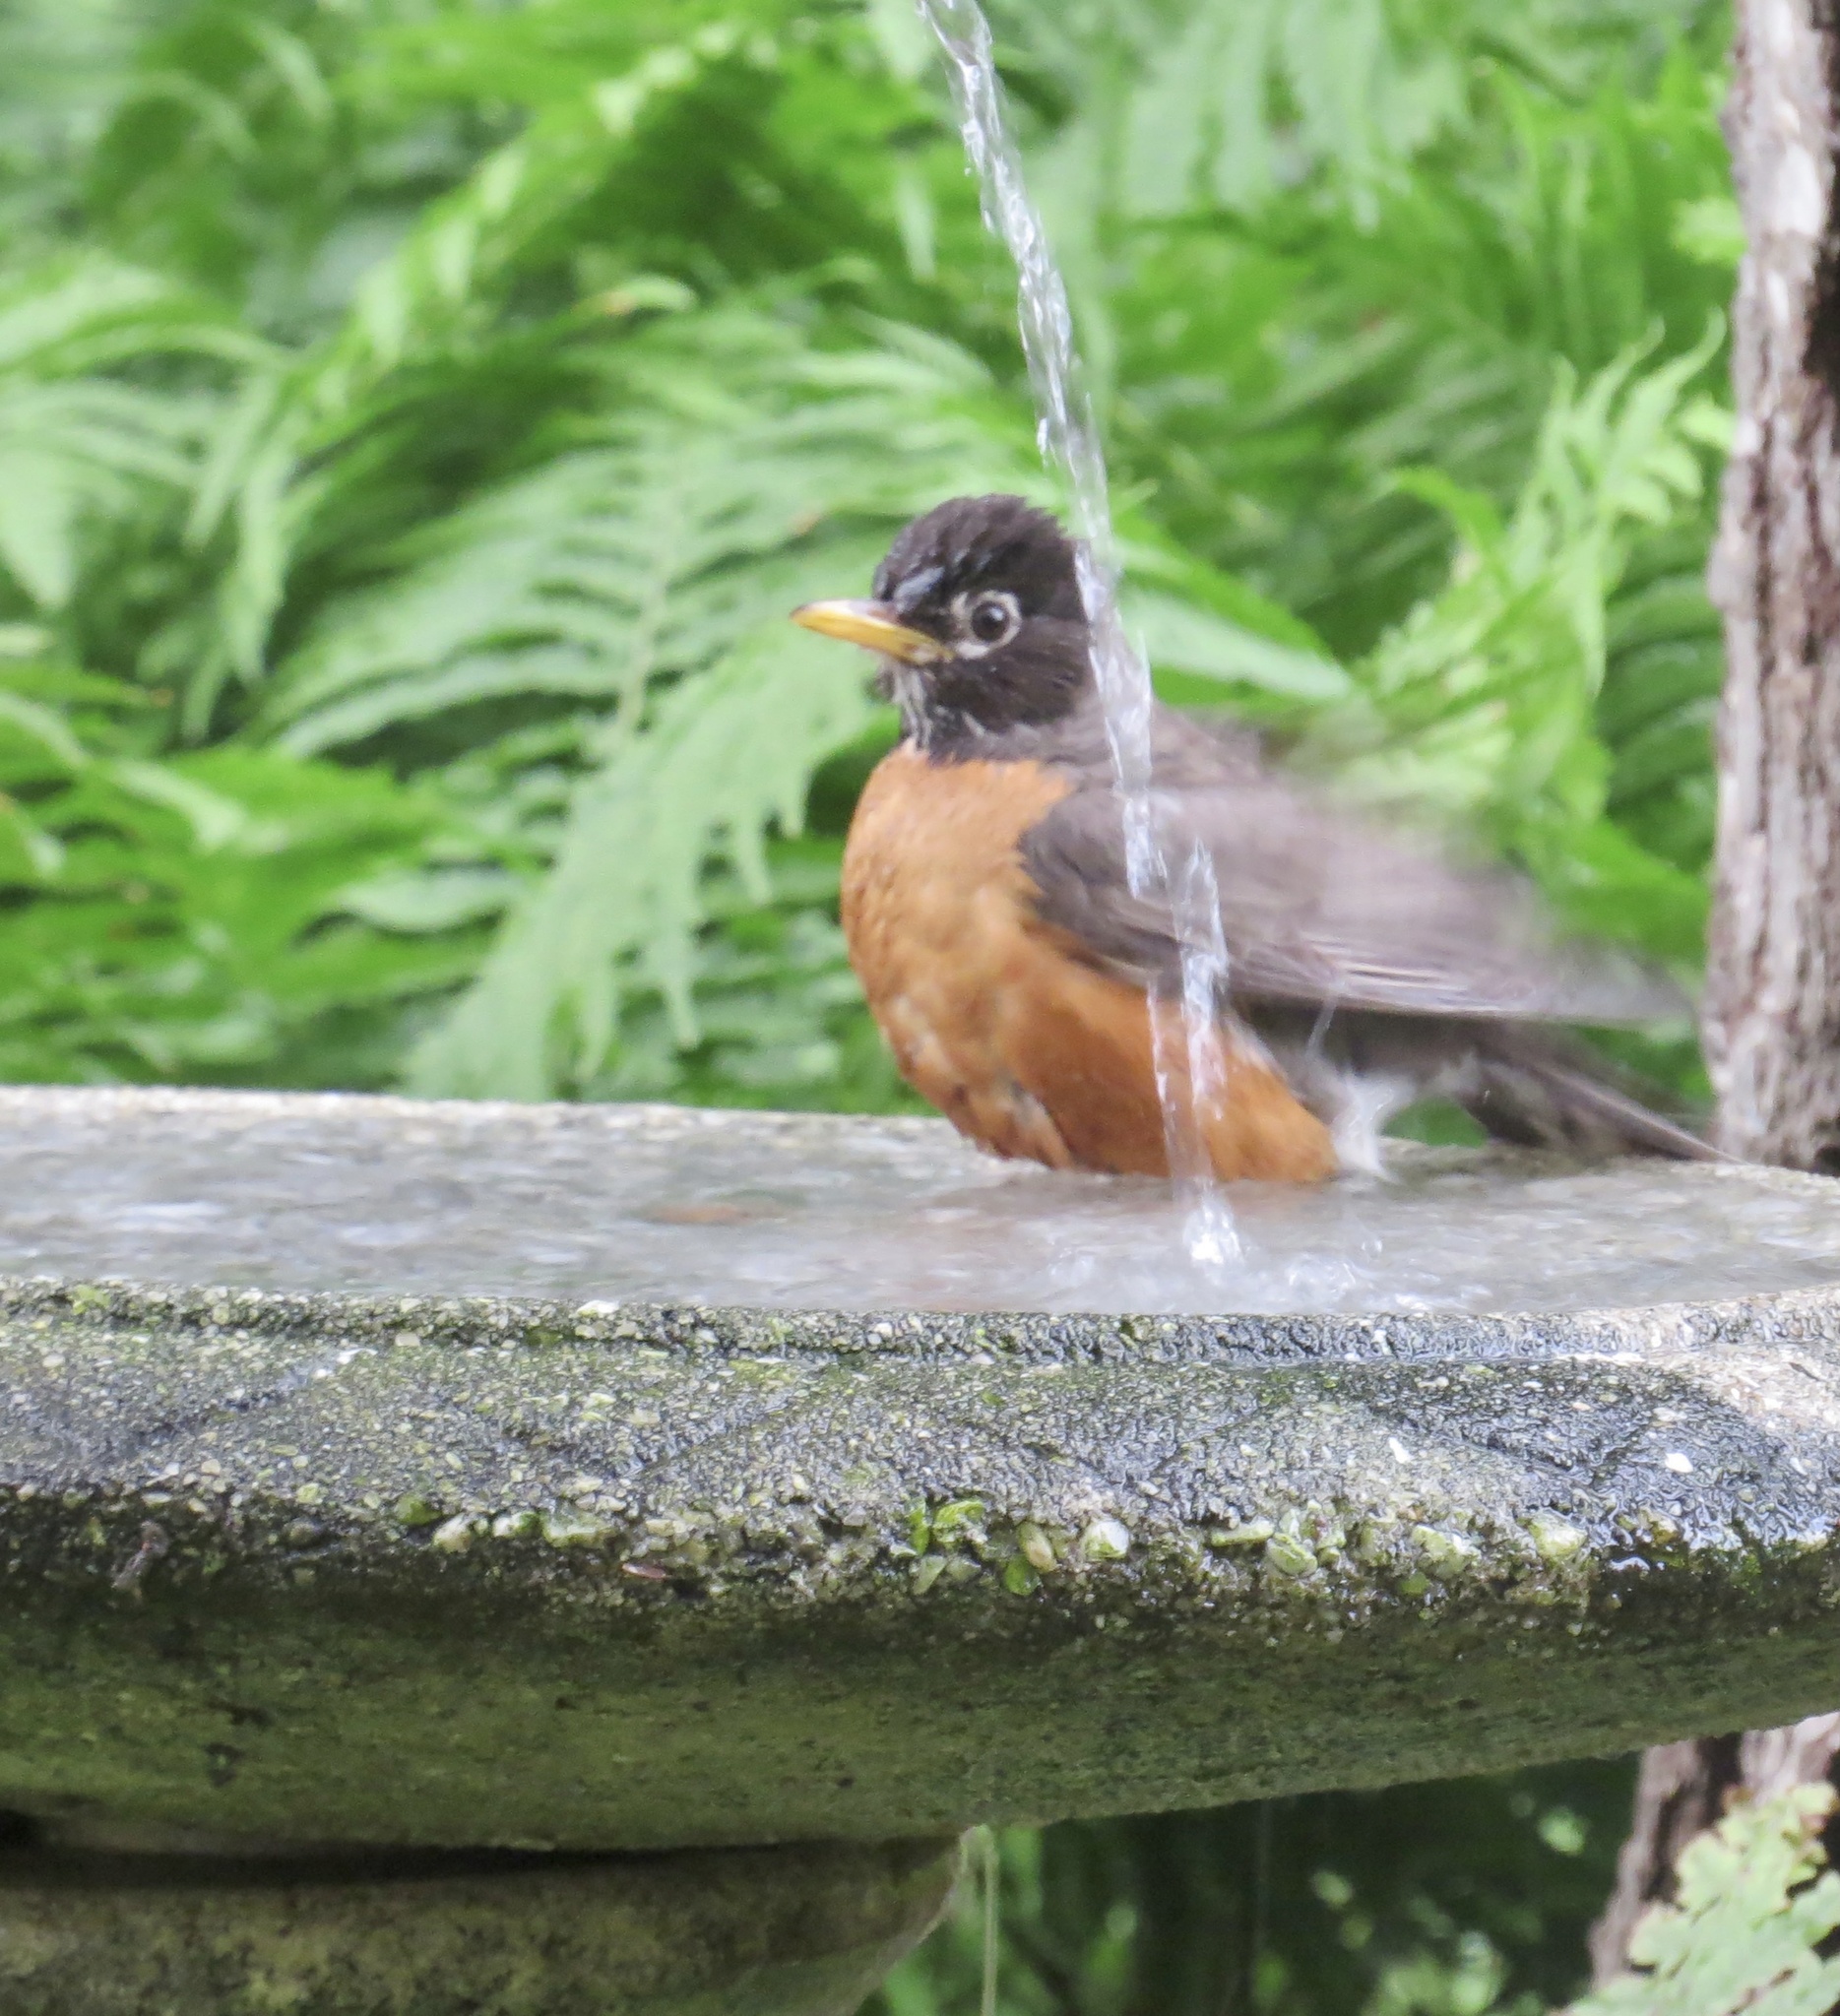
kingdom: Animalia
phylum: Chordata
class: Aves
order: Passeriformes
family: Turdidae
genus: Turdus
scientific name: Turdus migratorius
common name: American robin
